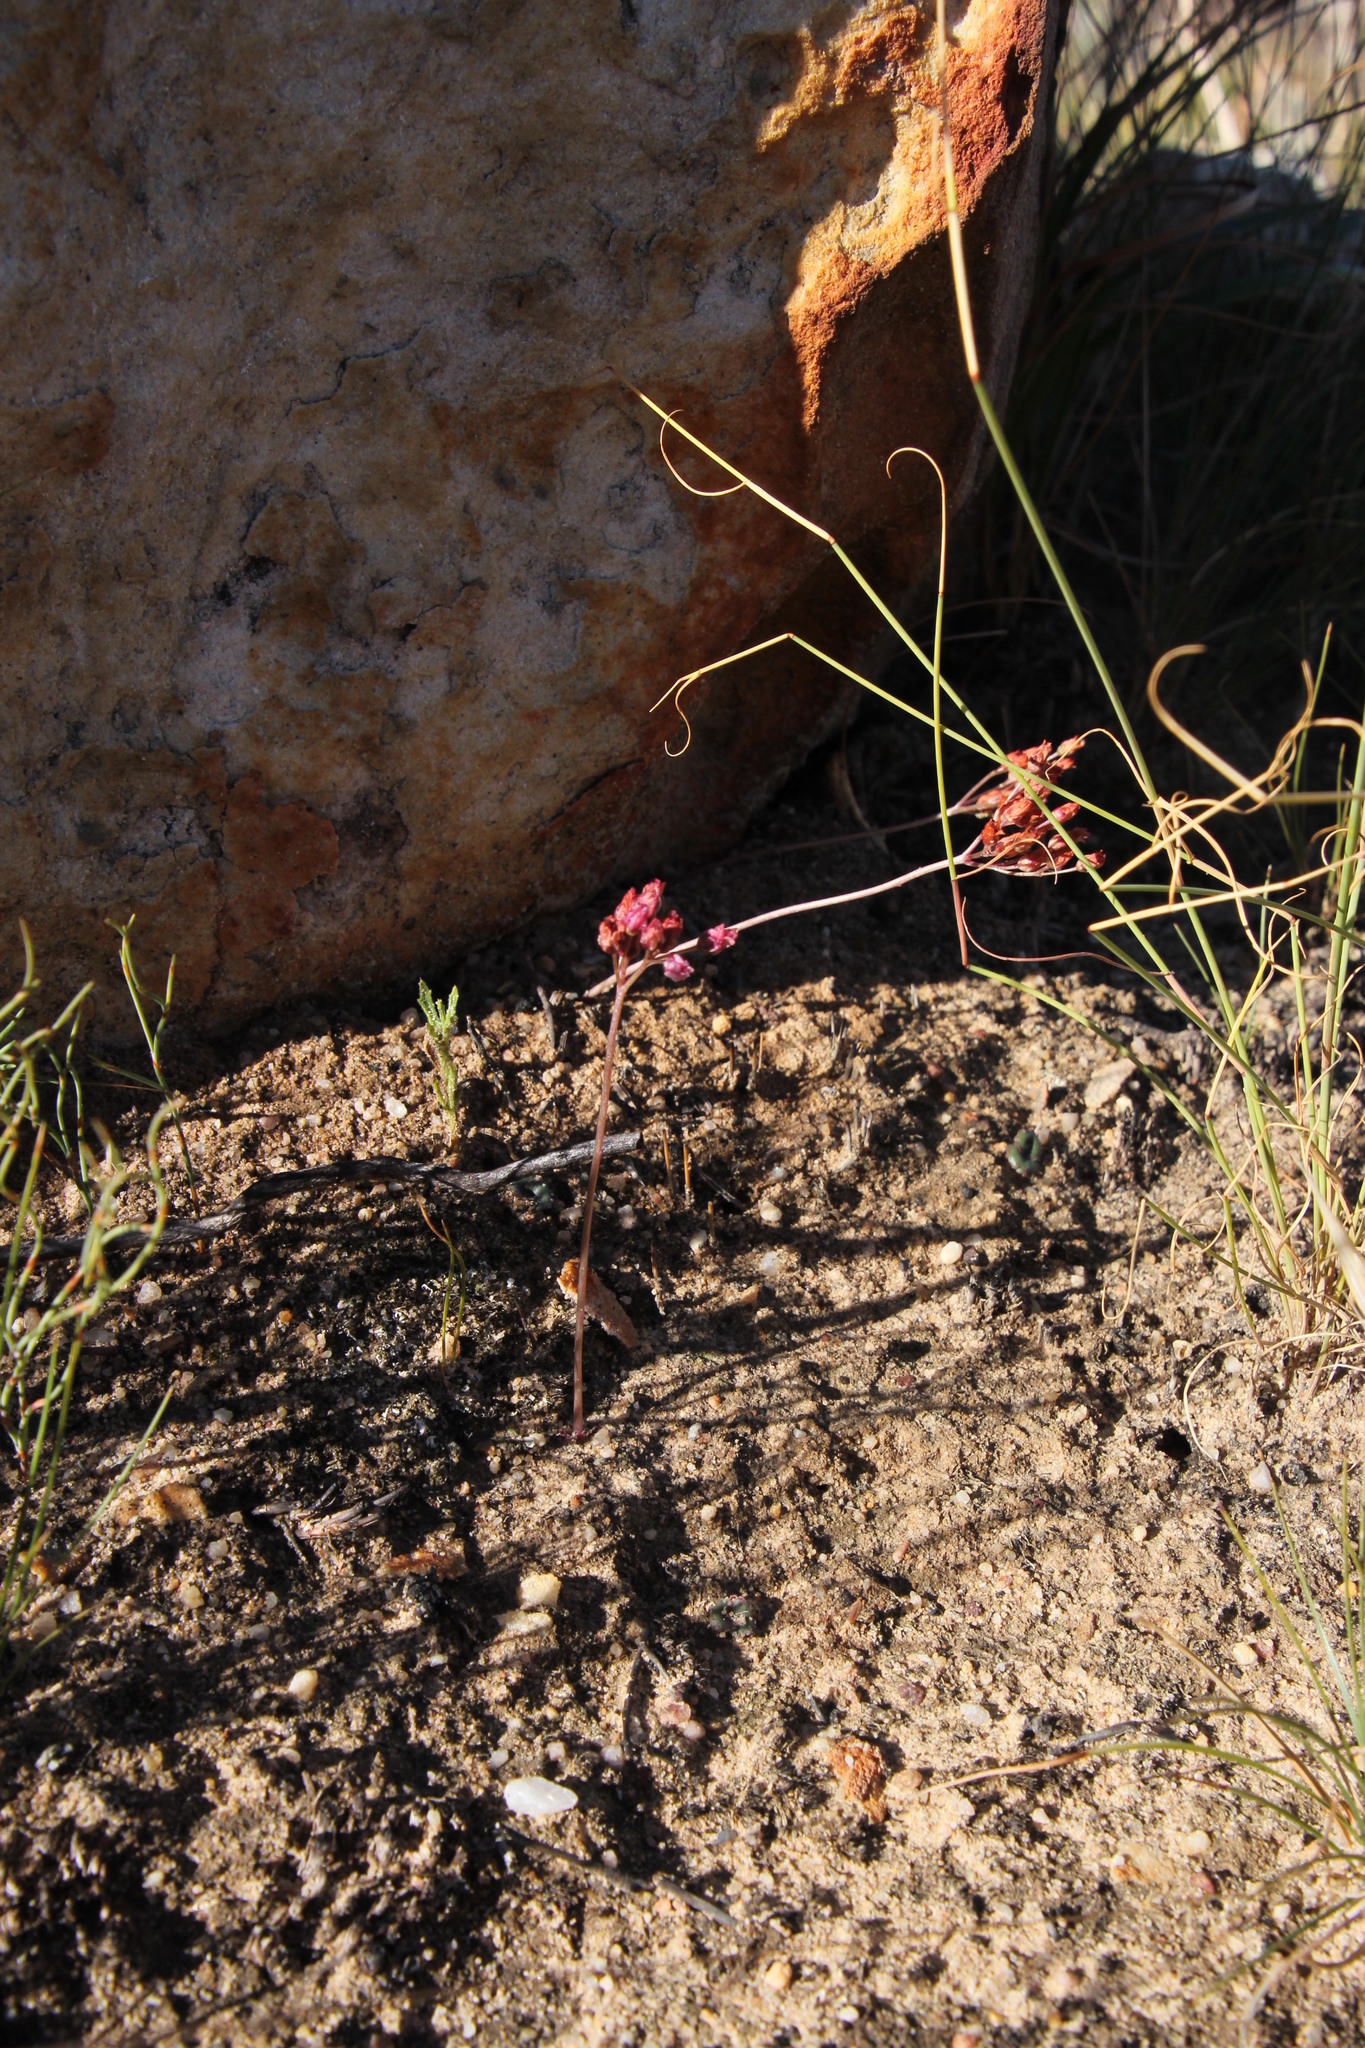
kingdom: Plantae
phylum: Tracheophyta
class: Magnoliopsida
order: Saxifragales
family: Crassulaceae
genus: Crassula
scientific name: Crassula saxifraga
